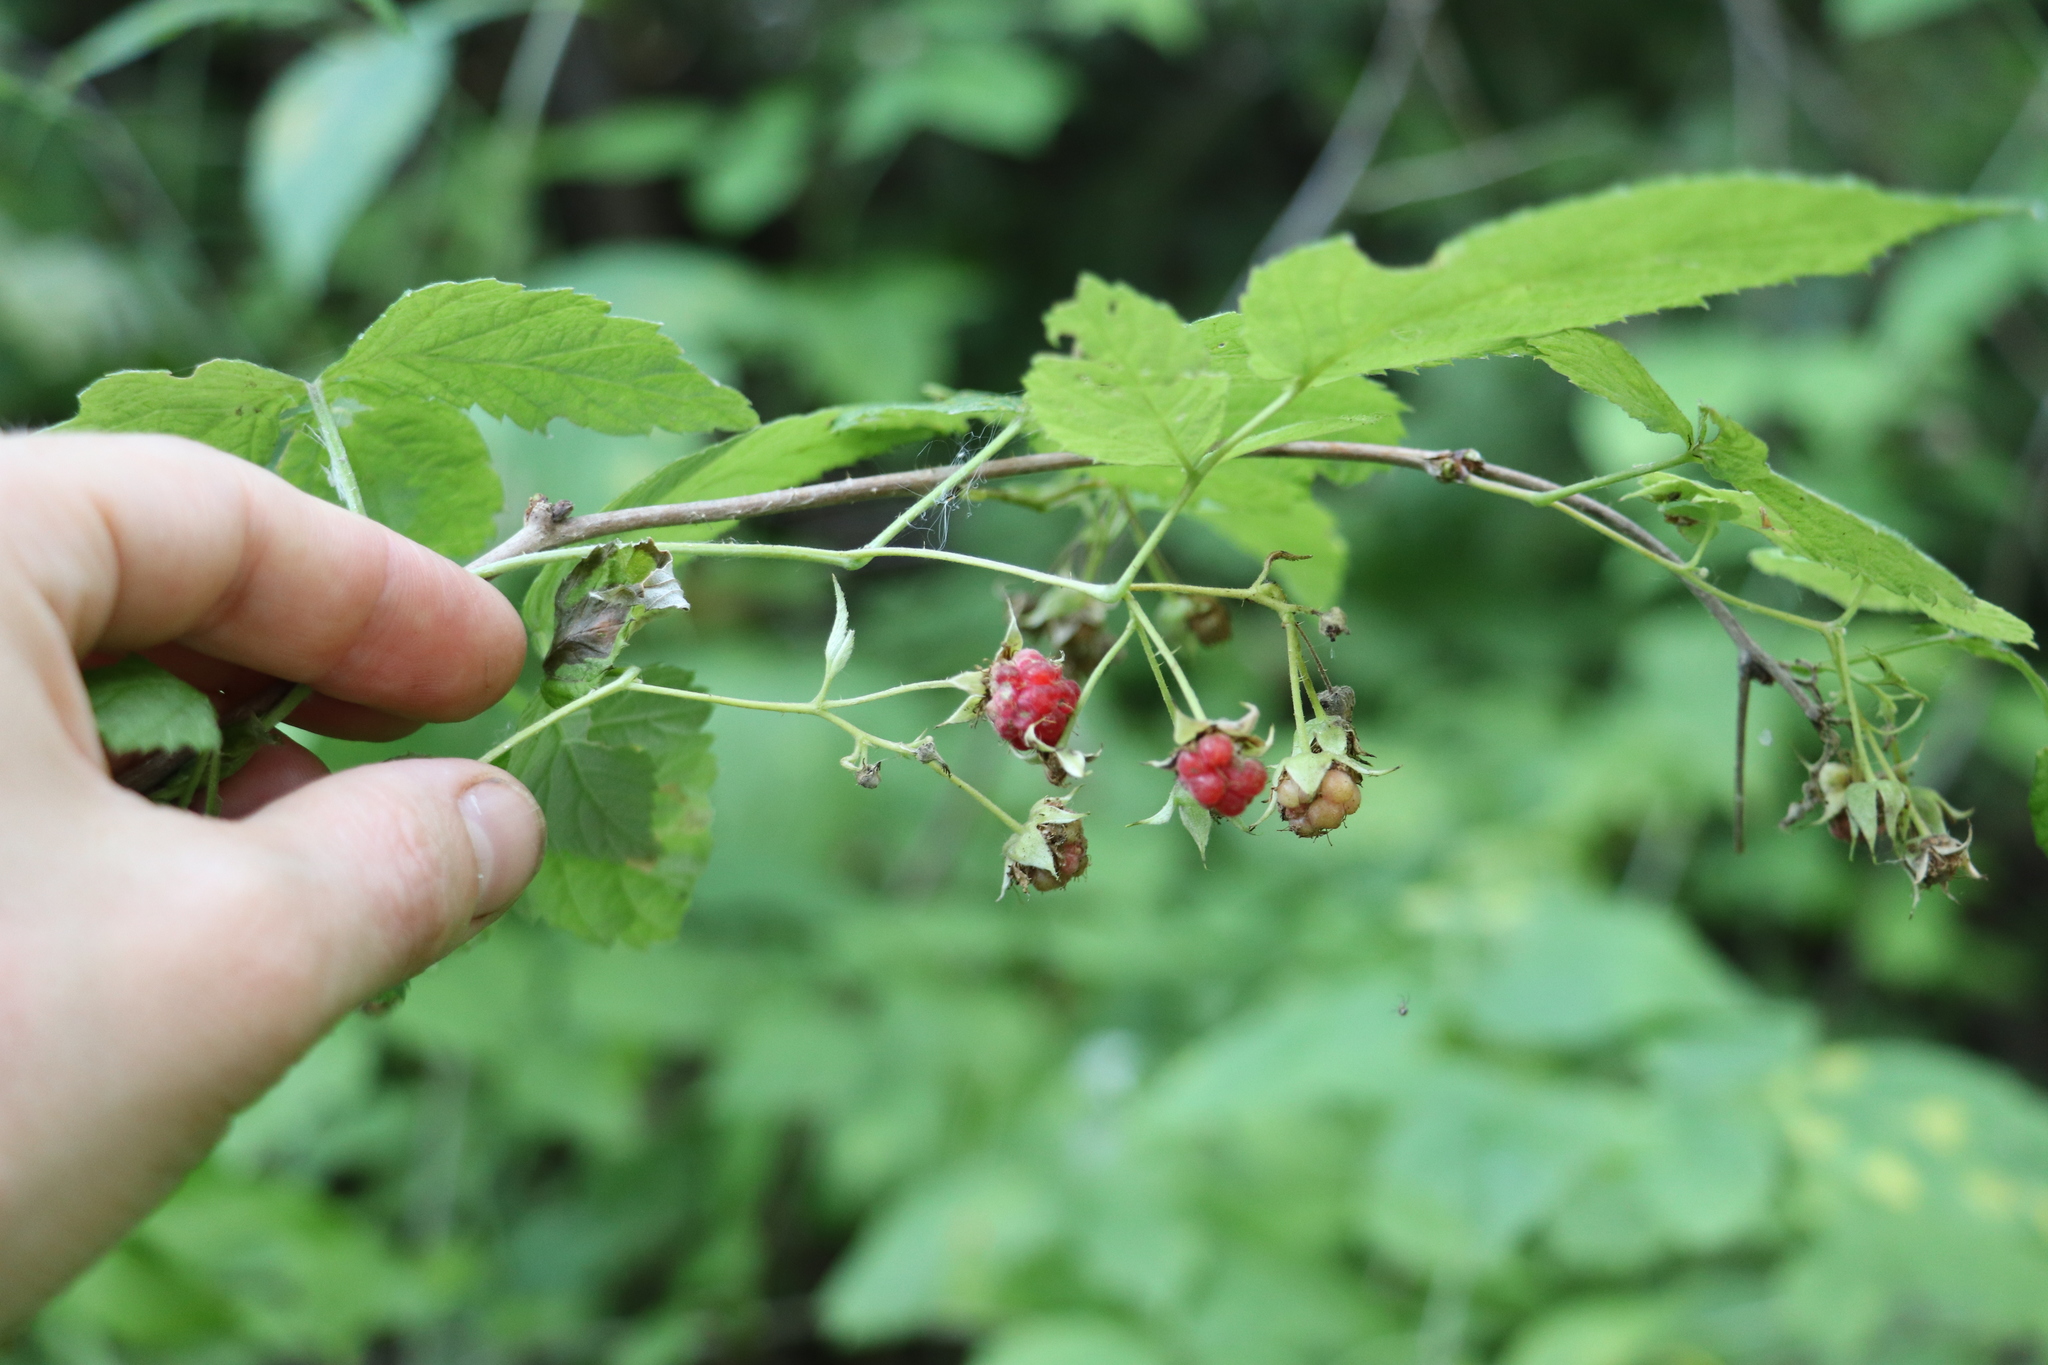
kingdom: Plantae
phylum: Tracheophyta
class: Magnoliopsida
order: Rosales
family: Rosaceae
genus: Rubus
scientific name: Rubus sachalinensis
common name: Red raspberry
